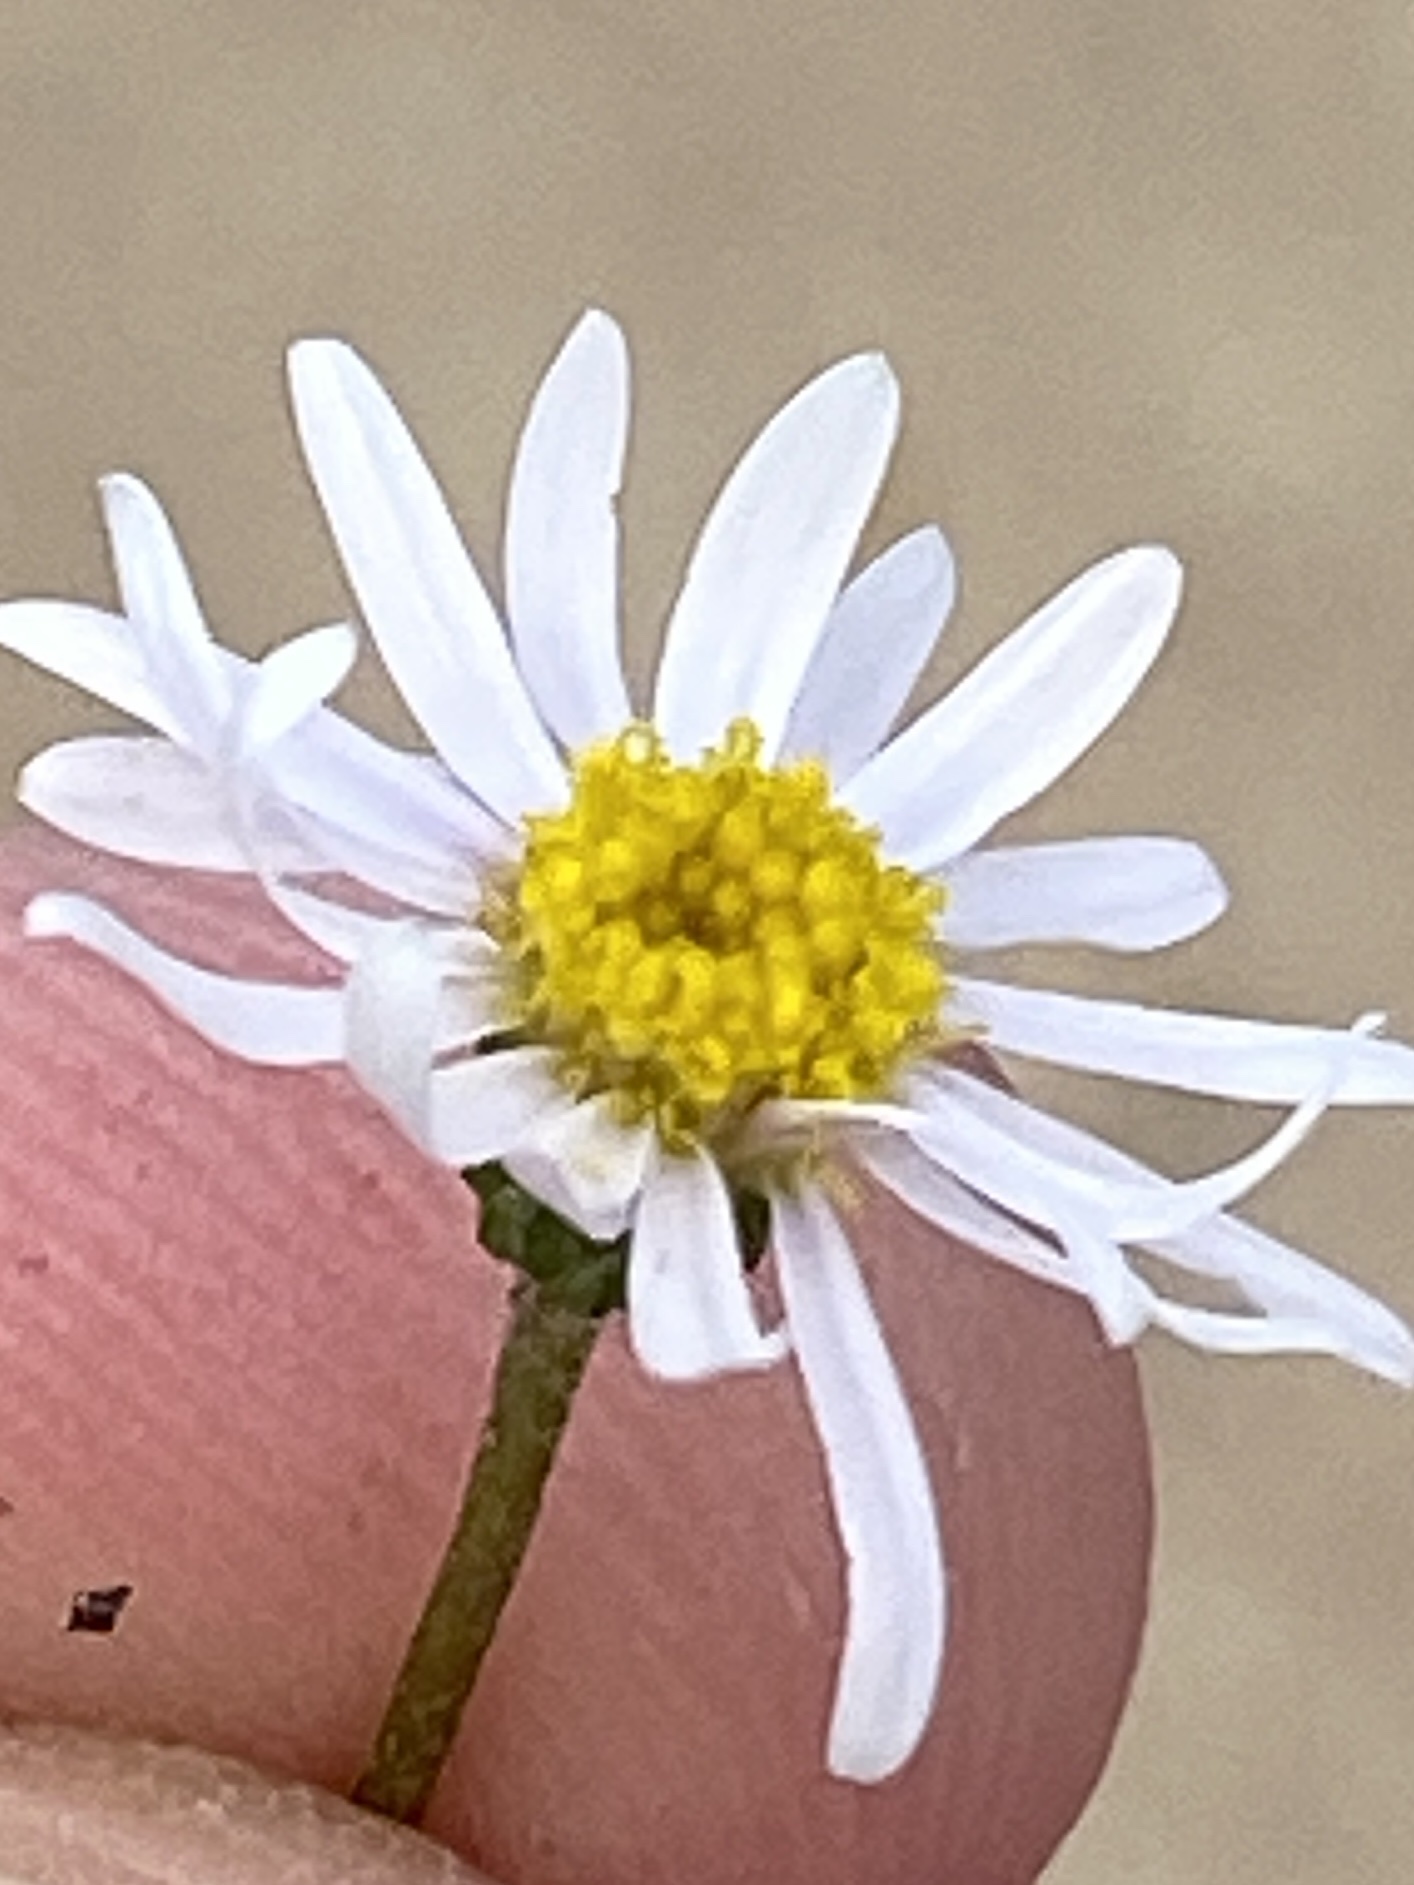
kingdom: Plantae
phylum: Tracheophyta
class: Magnoliopsida
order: Asterales
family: Asteraceae
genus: Felicia
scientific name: Felicia muricata
